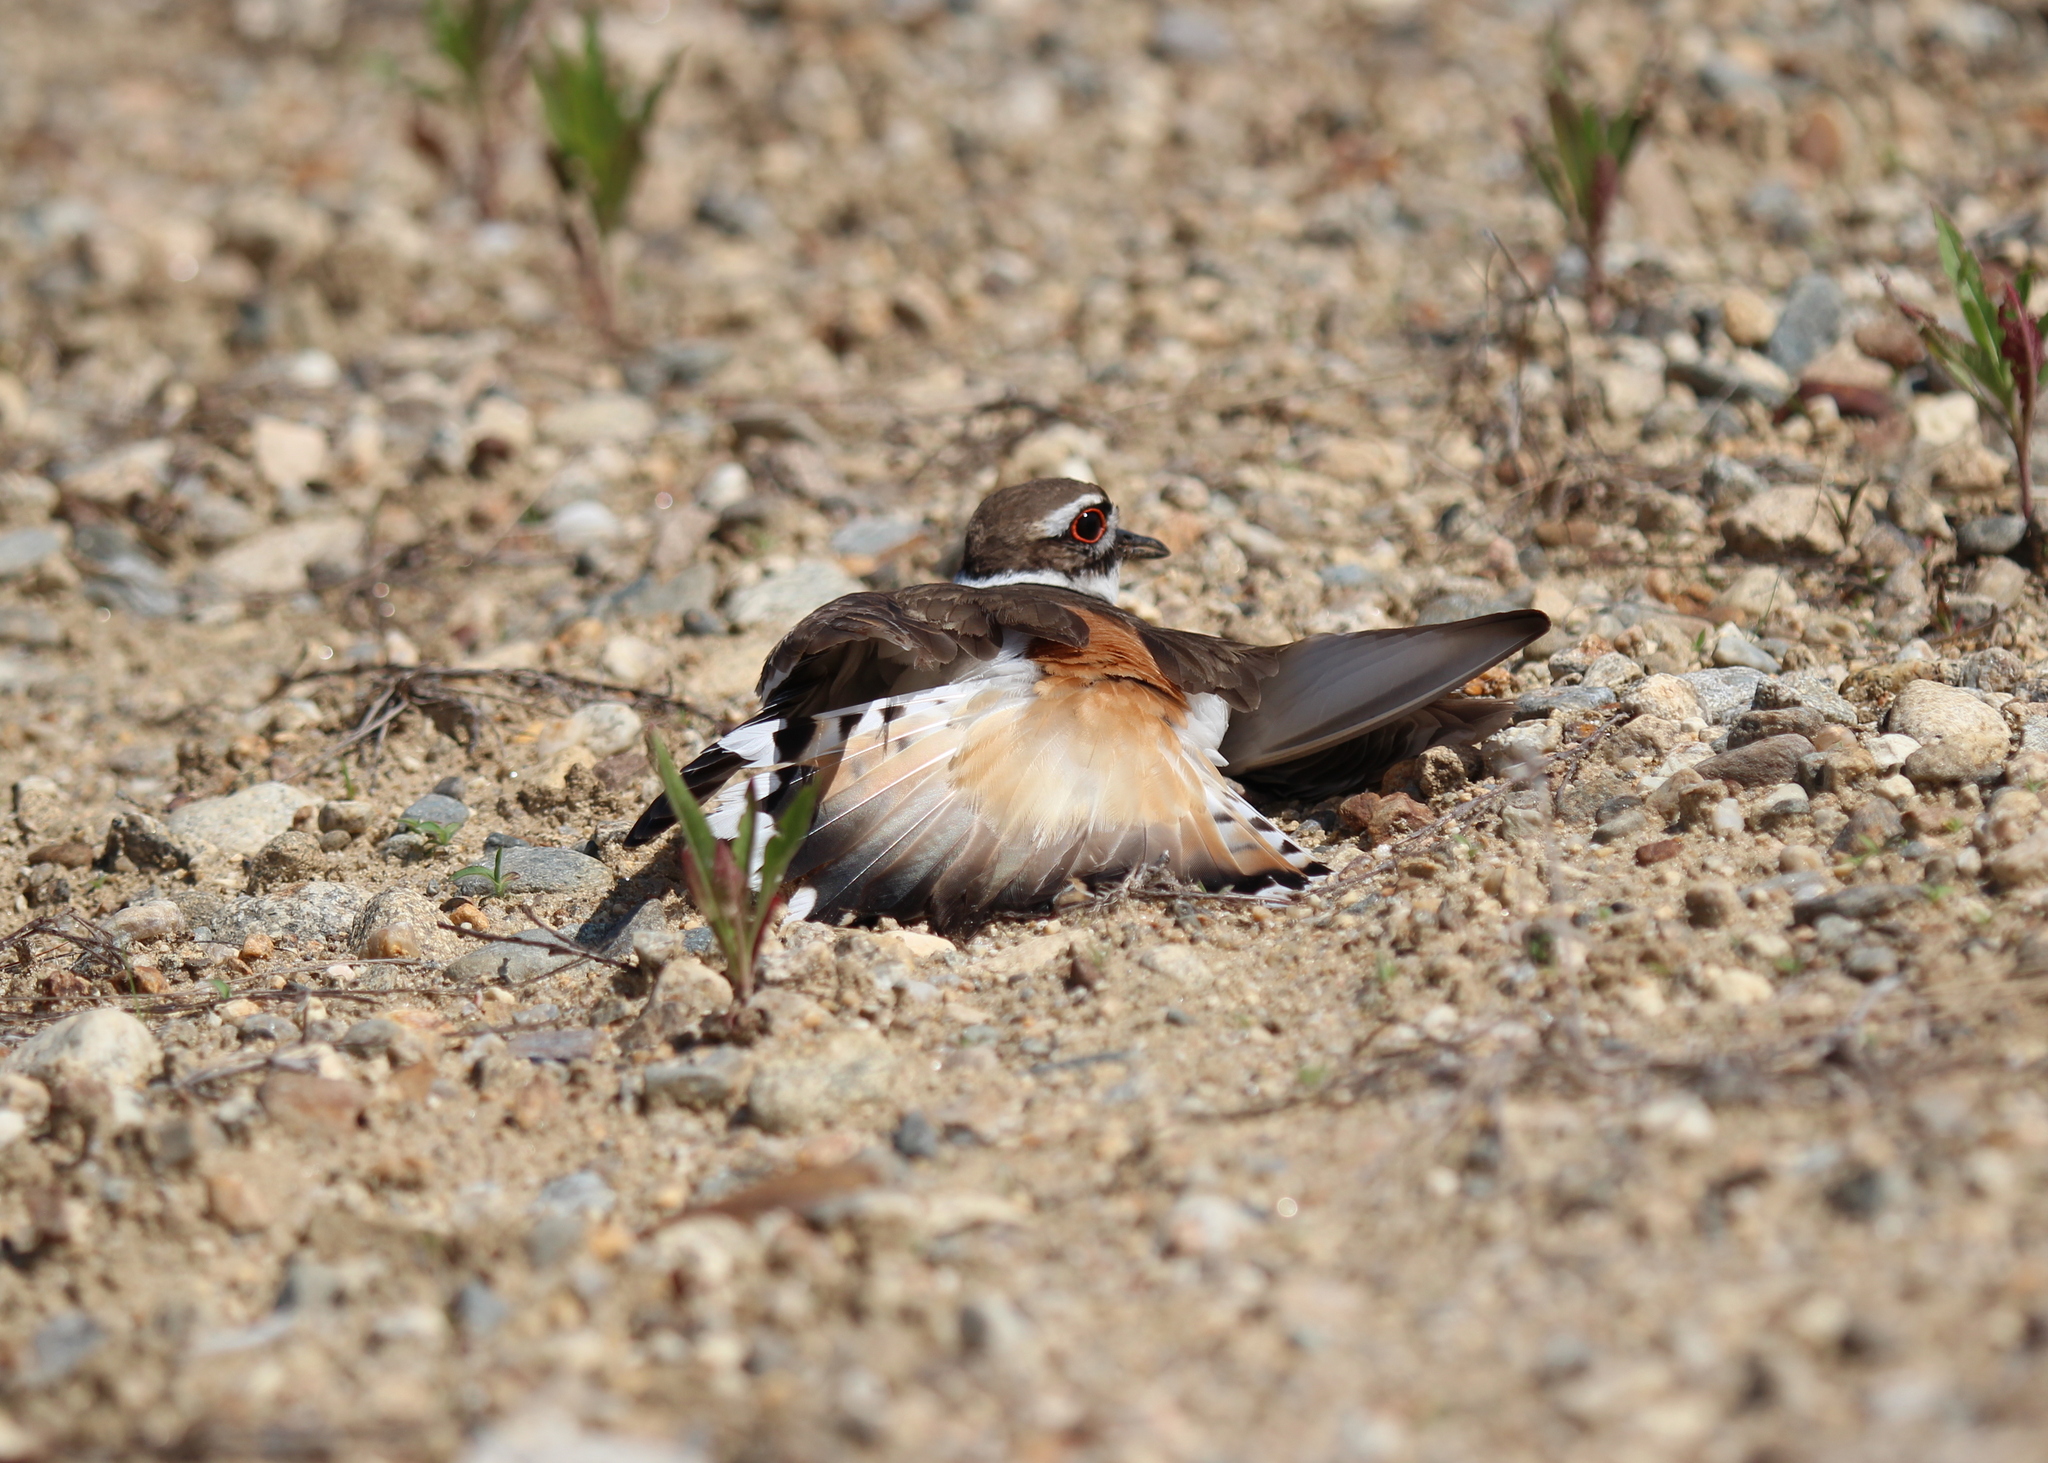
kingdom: Animalia
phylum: Chordata
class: Aves
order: Charadriiformes
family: Charadriidae
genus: Charadrius
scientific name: Charadrius vociferus
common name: Killdeer
